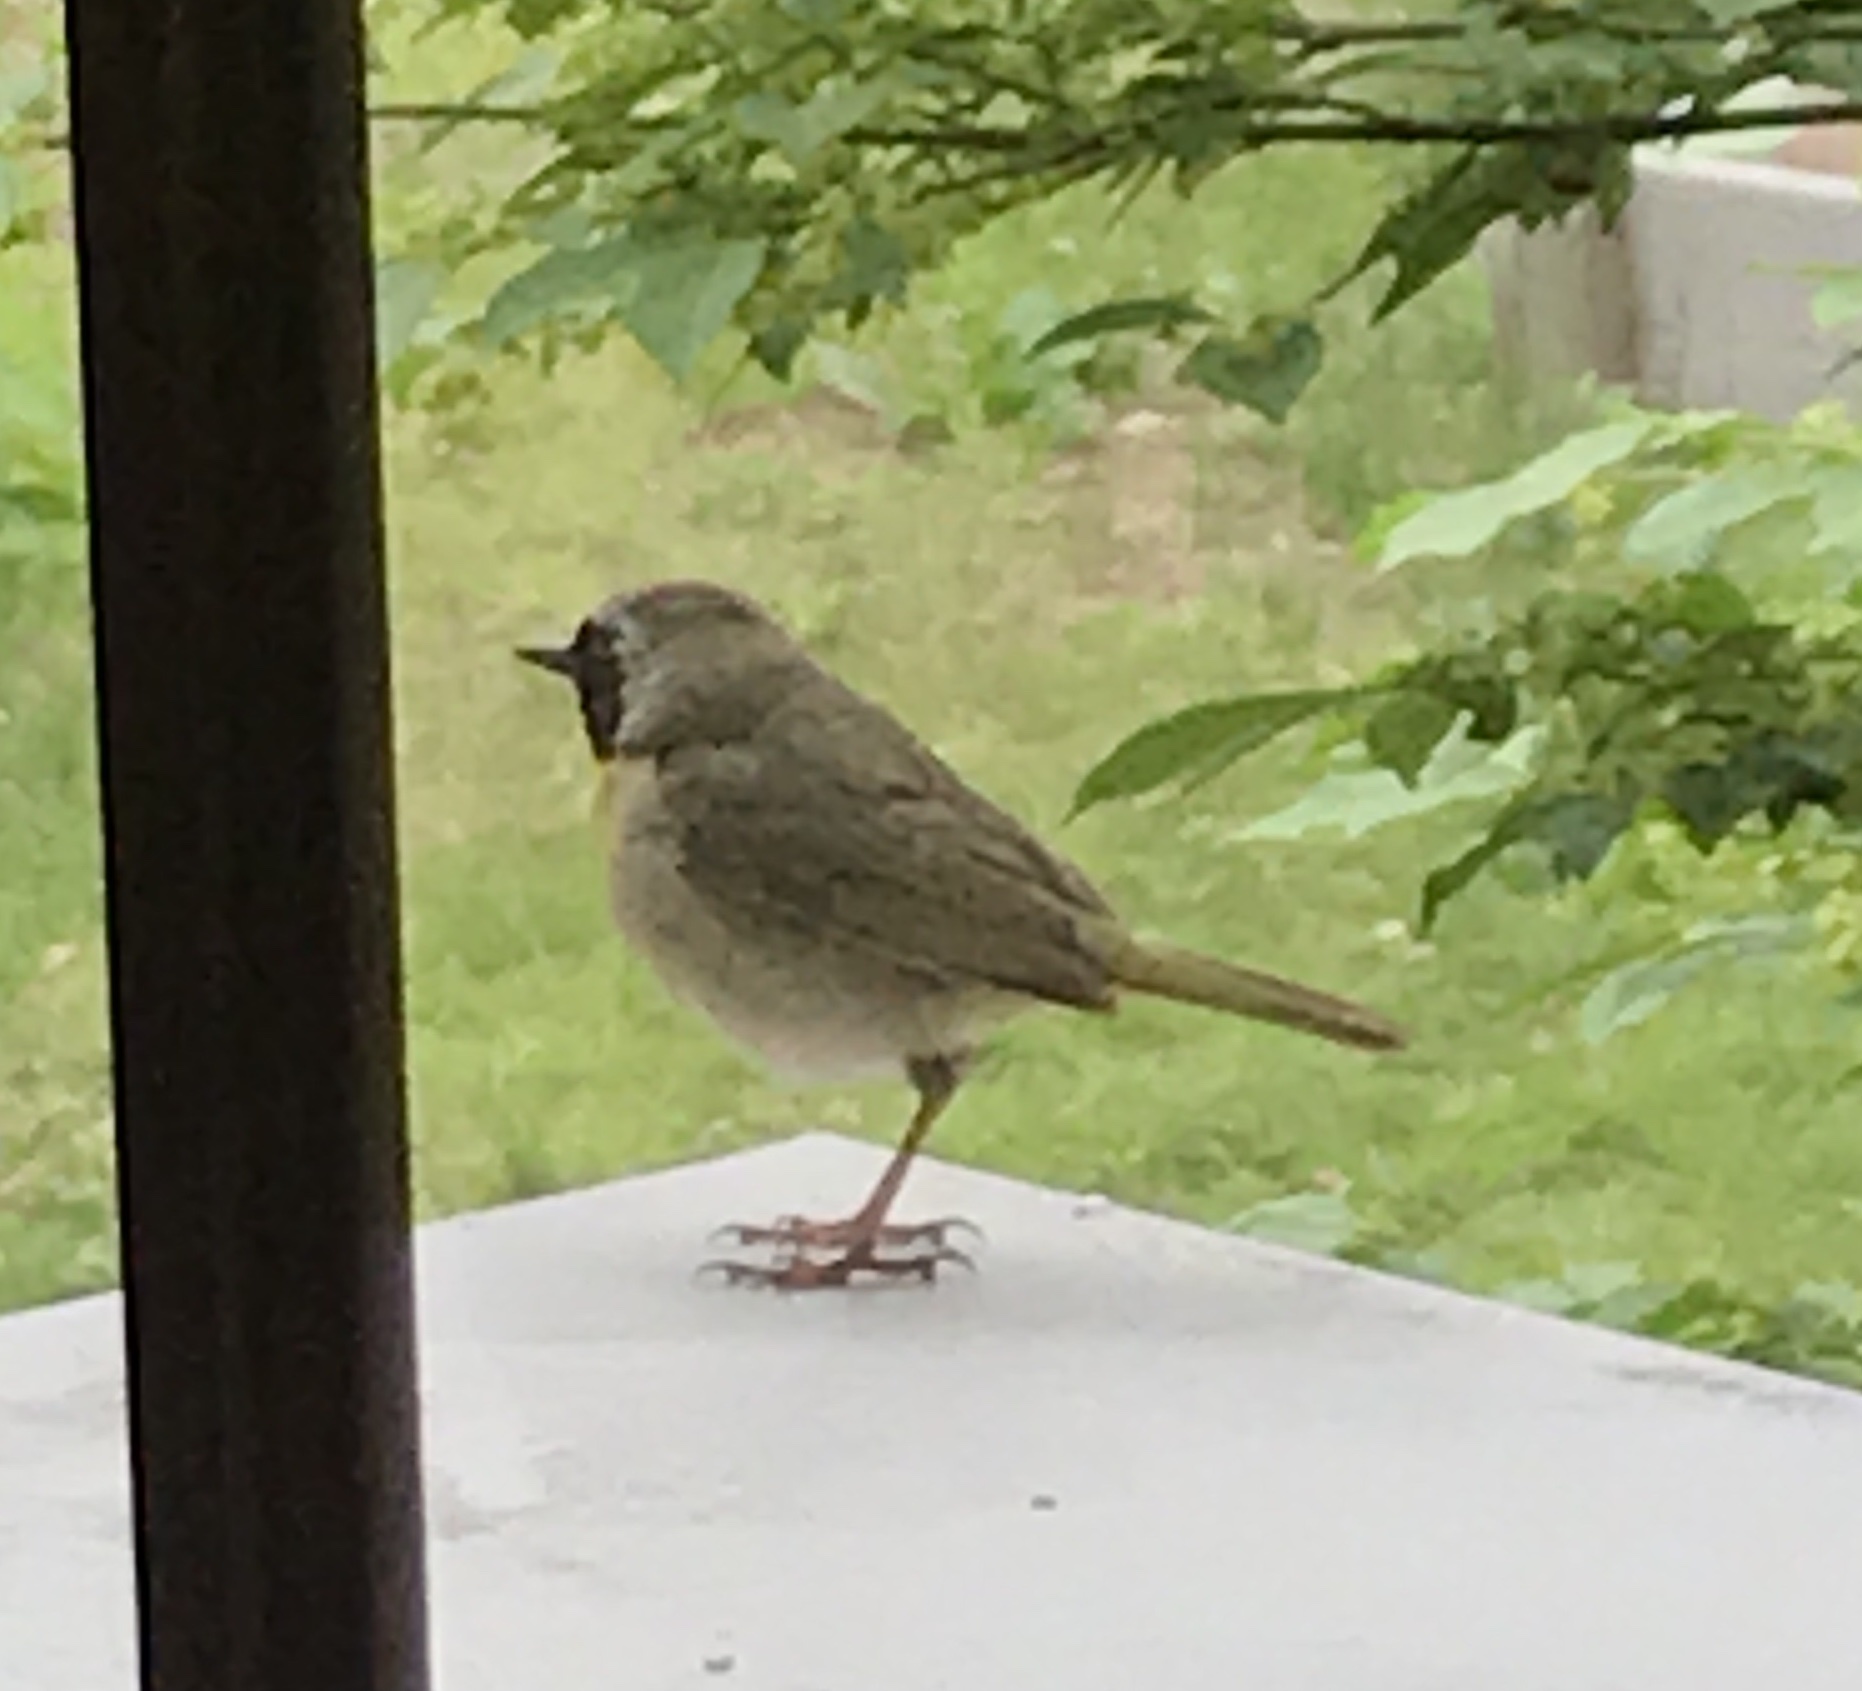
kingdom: Animalia
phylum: Chordata
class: Aves
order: Passeriformes
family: Parulidae
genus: Geothlypis
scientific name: Geothlypis trichas
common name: Common yellowthroat
